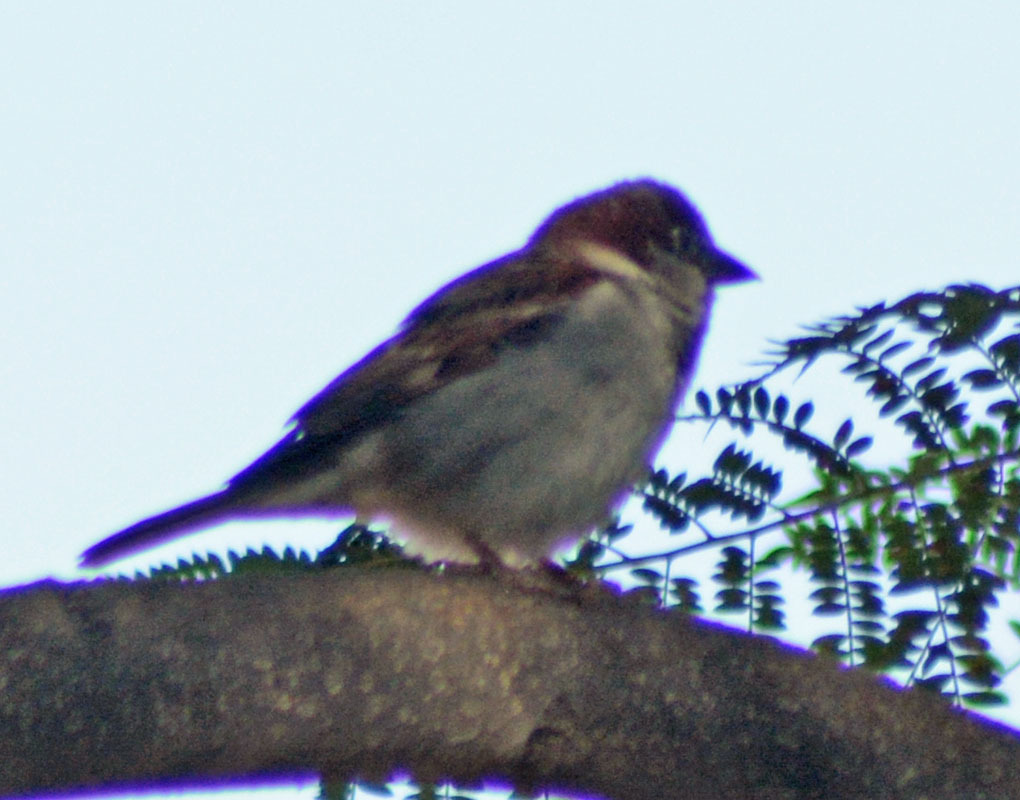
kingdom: Animalia
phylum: Chordata
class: Aves
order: Passeriformes
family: Passeridae
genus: Passer
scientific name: Passer domesticus
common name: House sparrow
